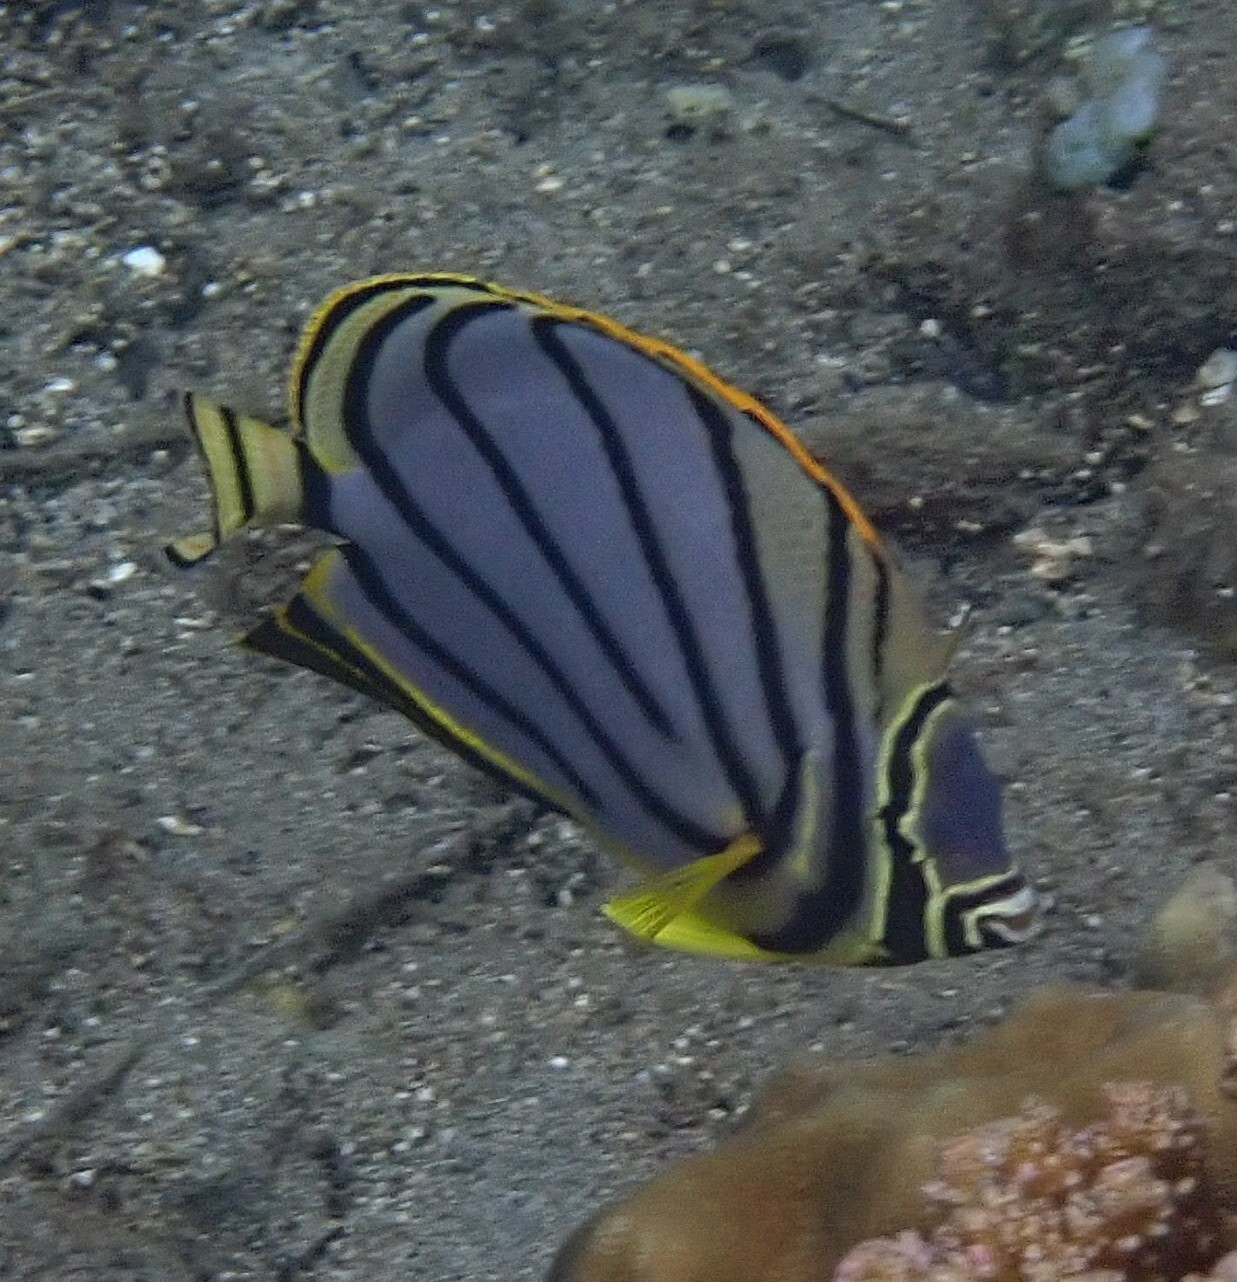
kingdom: Animalia
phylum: Chordata
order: Perciformes
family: Chaetodontidae
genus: Chaetodon
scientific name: Chaetodon meyeri
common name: Meyer's butterflyfish
